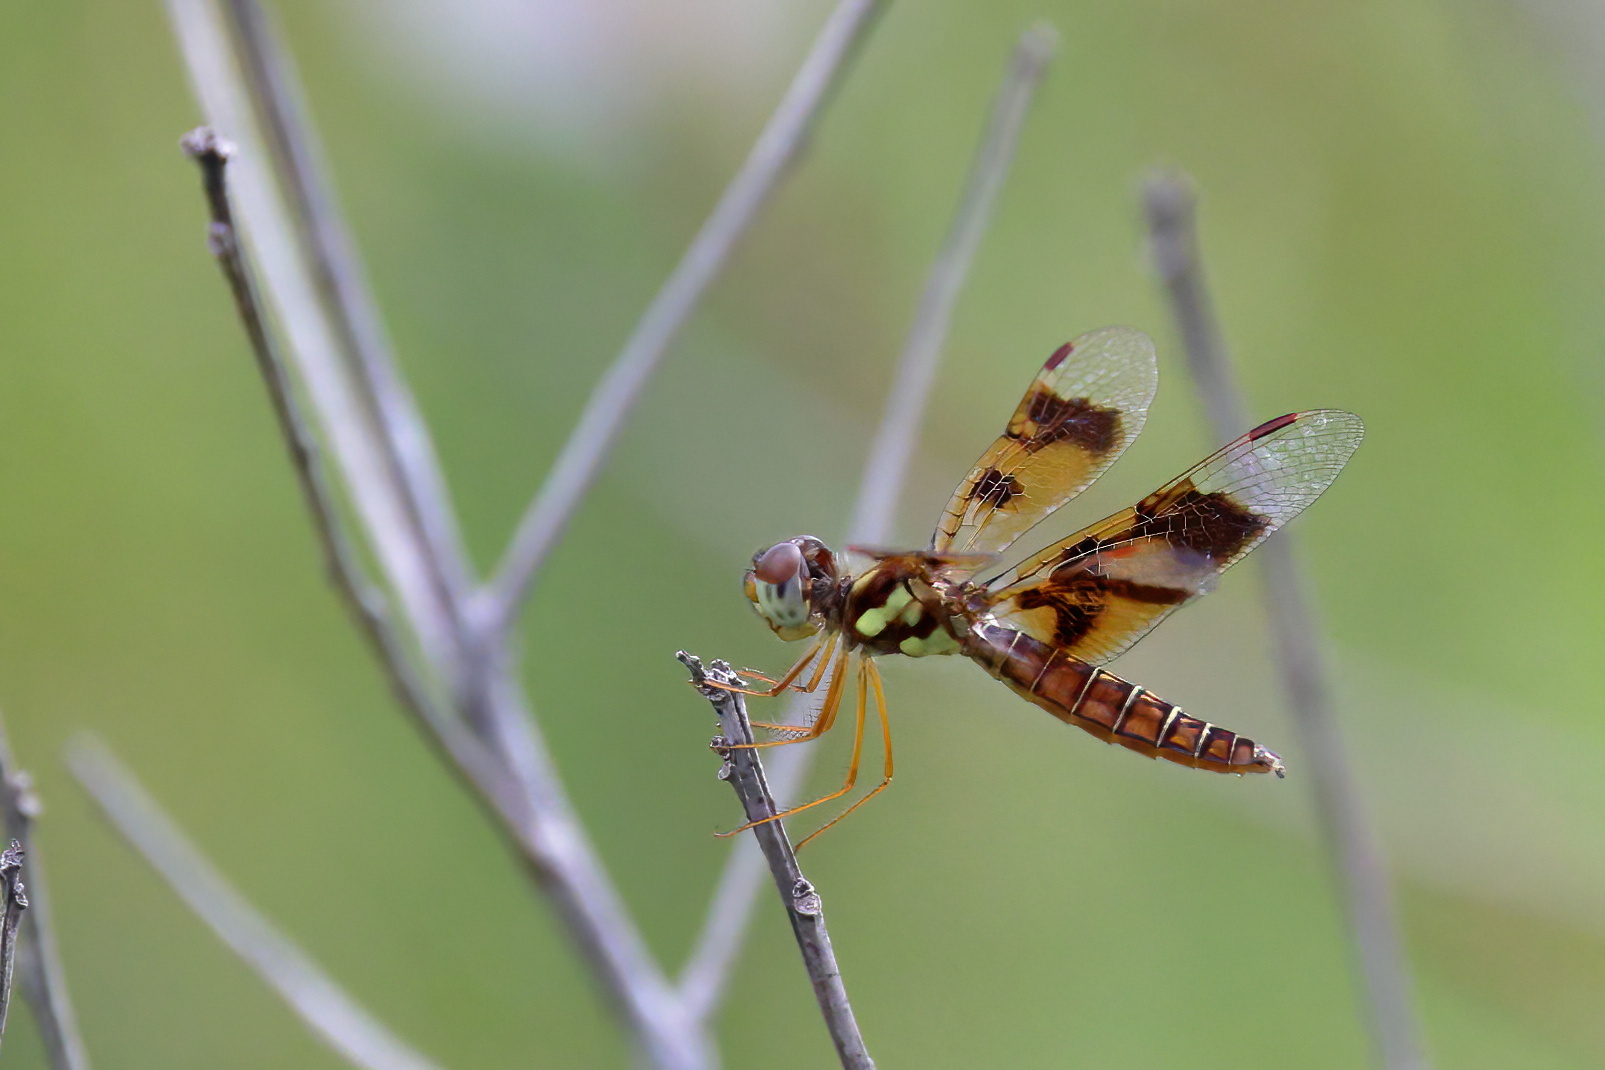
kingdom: Animalia
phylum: Arthropoda
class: Insecta
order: Odonata
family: Libellulidae
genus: Perithemis
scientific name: Perithemis tenera
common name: Eastern amberwing
